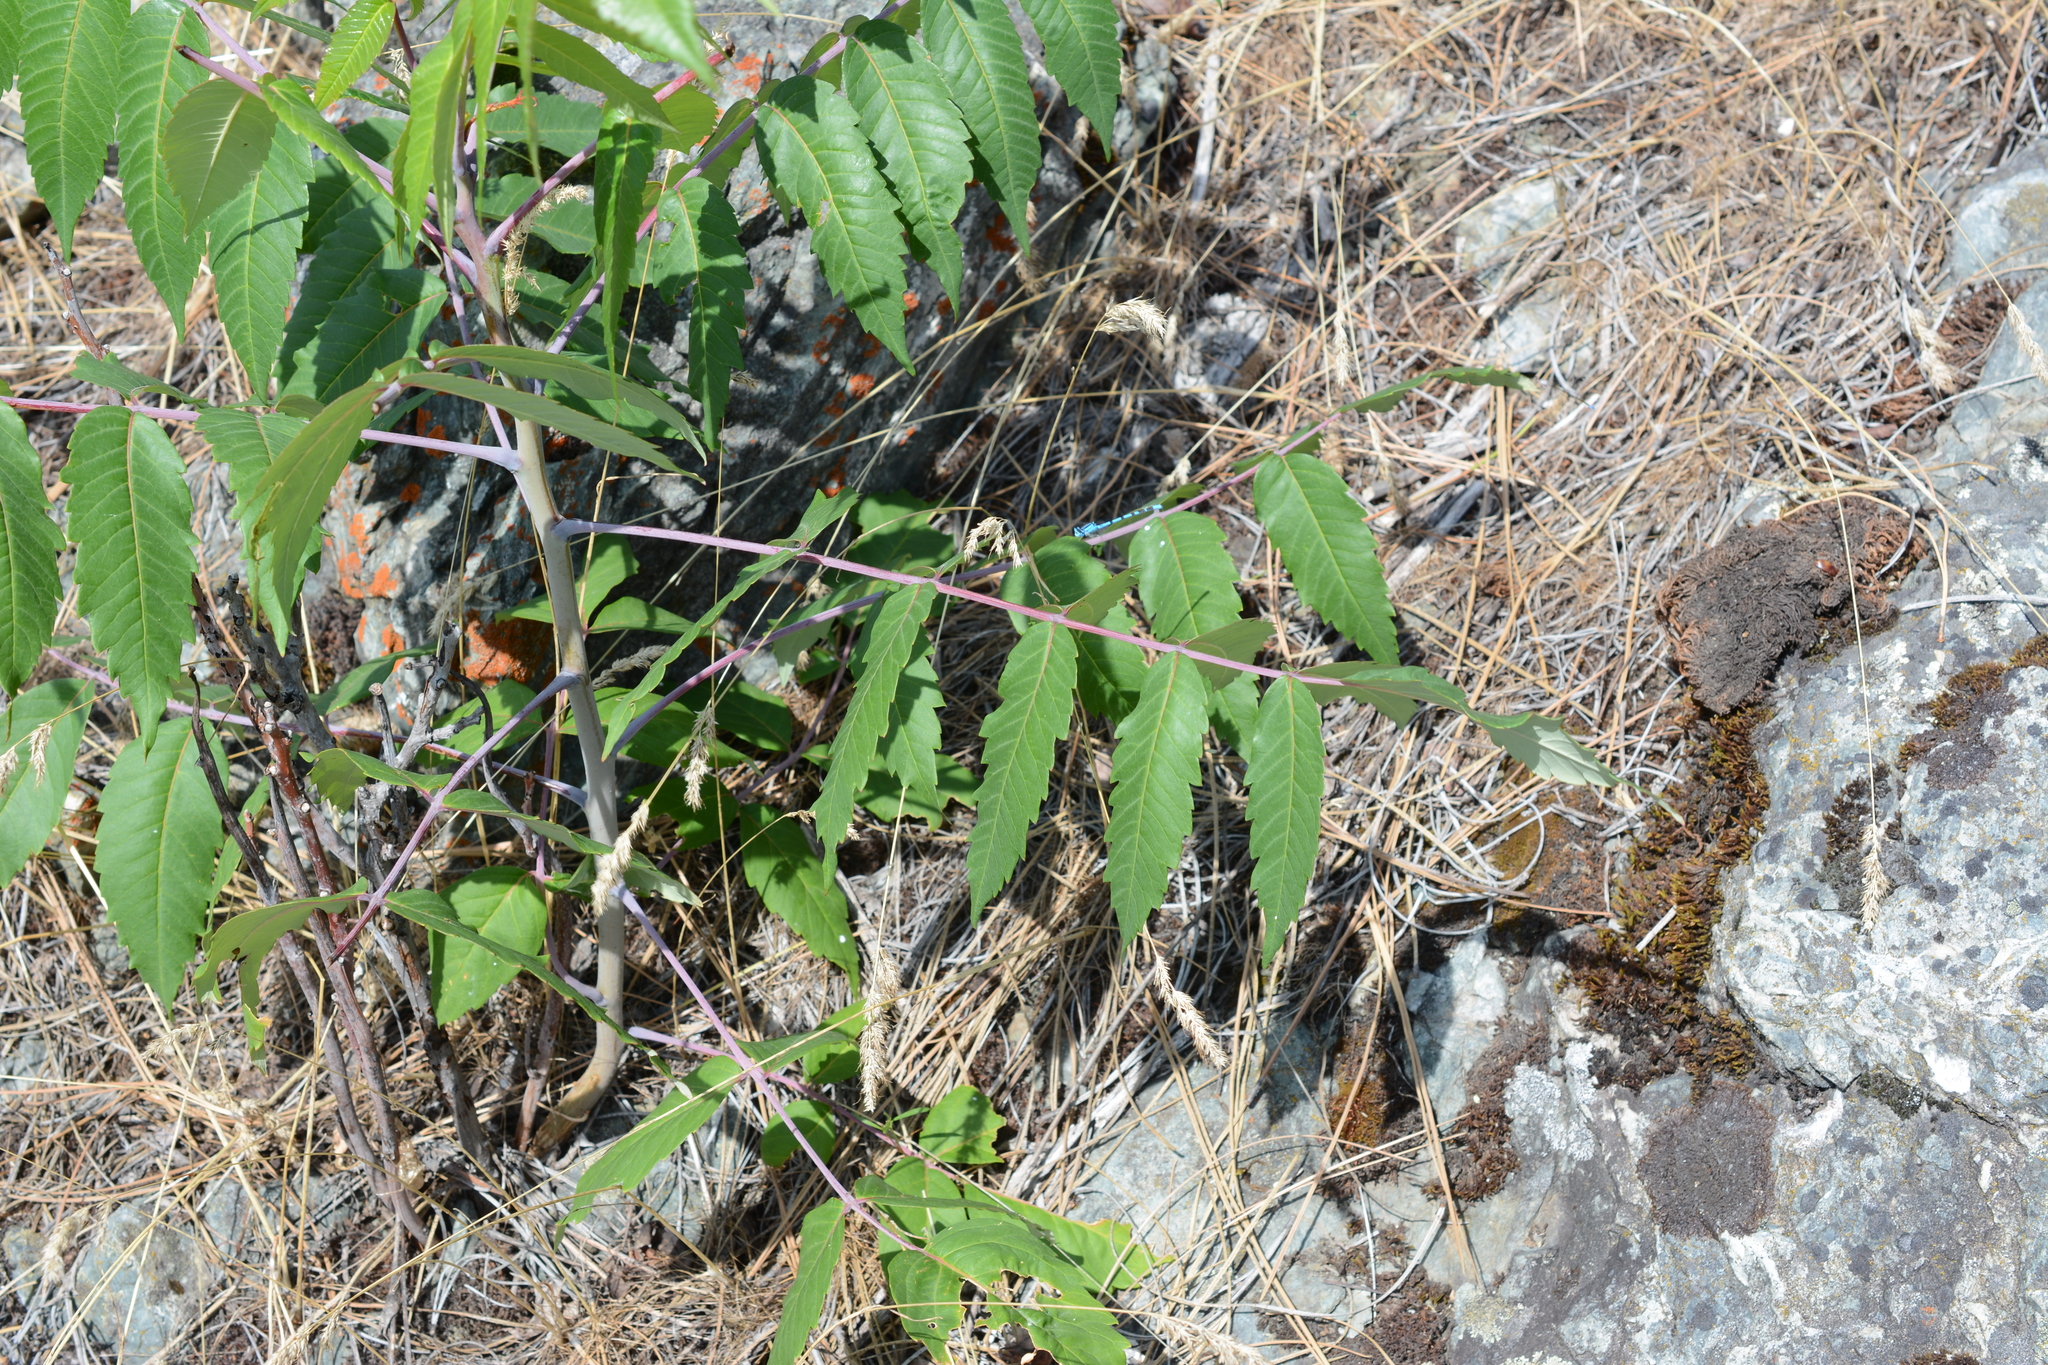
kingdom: Plantae
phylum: Tracheophyta
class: Magnoliopsida
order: Sapindales
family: Anacardiaceae
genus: Rhus
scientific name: Rhus glabra
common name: Scarlet sumac
